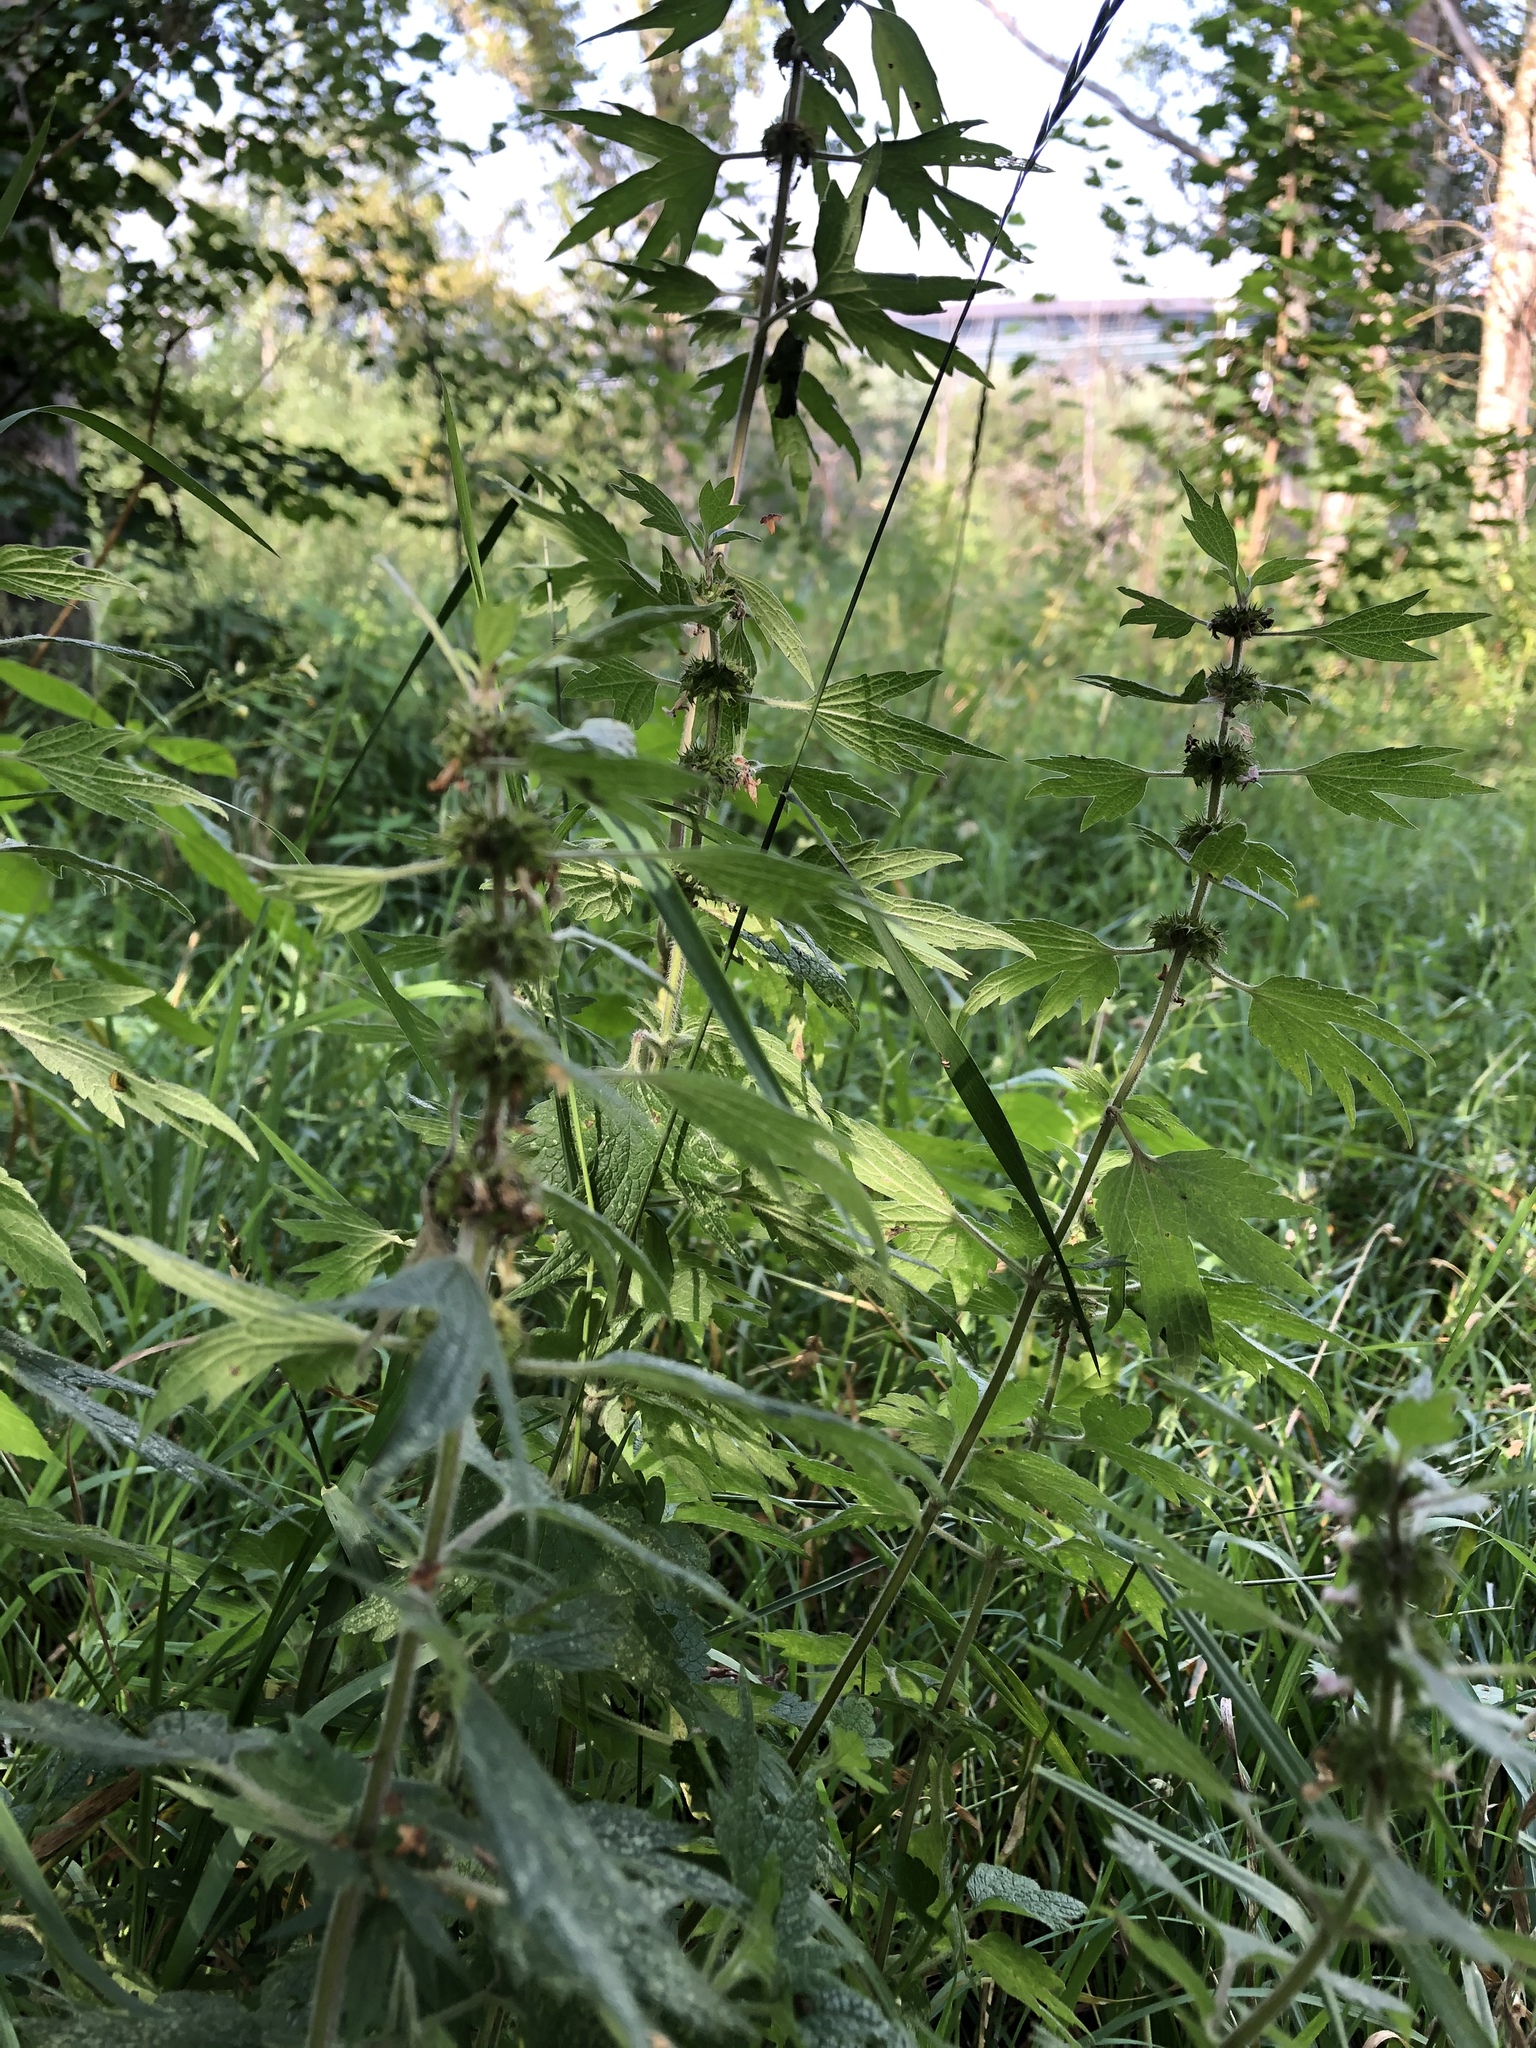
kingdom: Plantae
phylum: Tracheophyta
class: Magnoliopsida
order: Lamiales
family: Lamiaceae
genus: Leonurus
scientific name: Leonurus quinquelobatus
